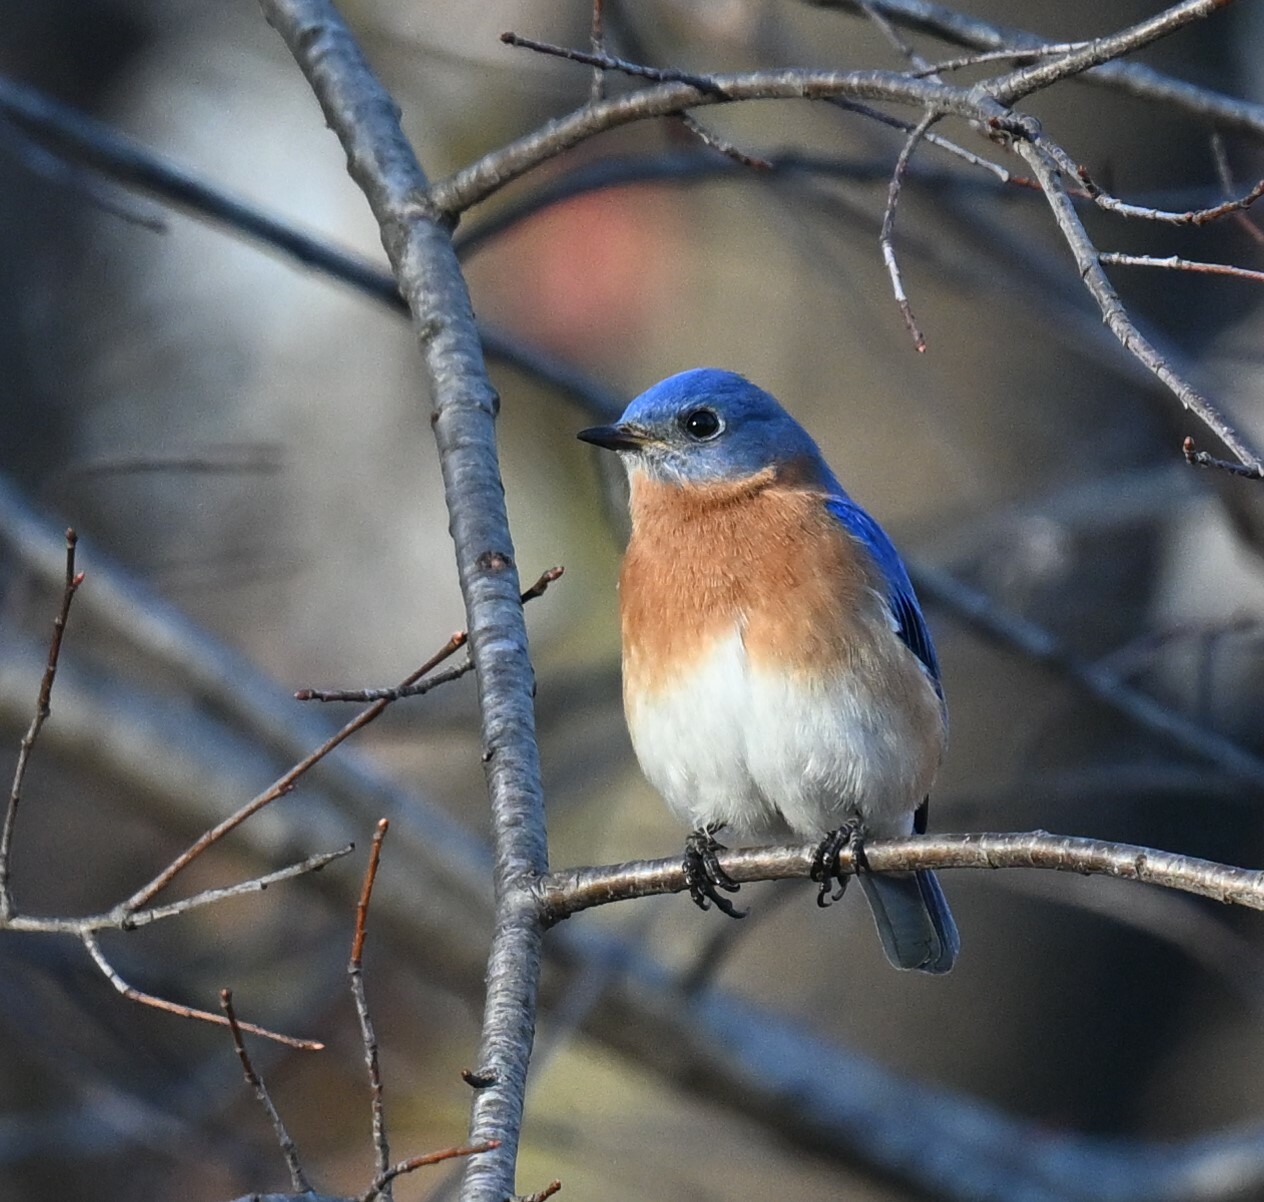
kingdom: Animalia
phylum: Chordata
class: Aves
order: Passeriformes
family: Turdidae
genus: Sialia
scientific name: Sialia sialis
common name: Eastern bluebird
